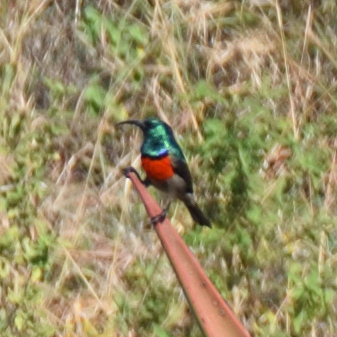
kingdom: Animalia
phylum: Chordata
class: Aves
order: Passeriformes
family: Nectariniidae
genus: Cinnyris
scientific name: Cinnyris afer
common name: Greater double-collared sunbird
